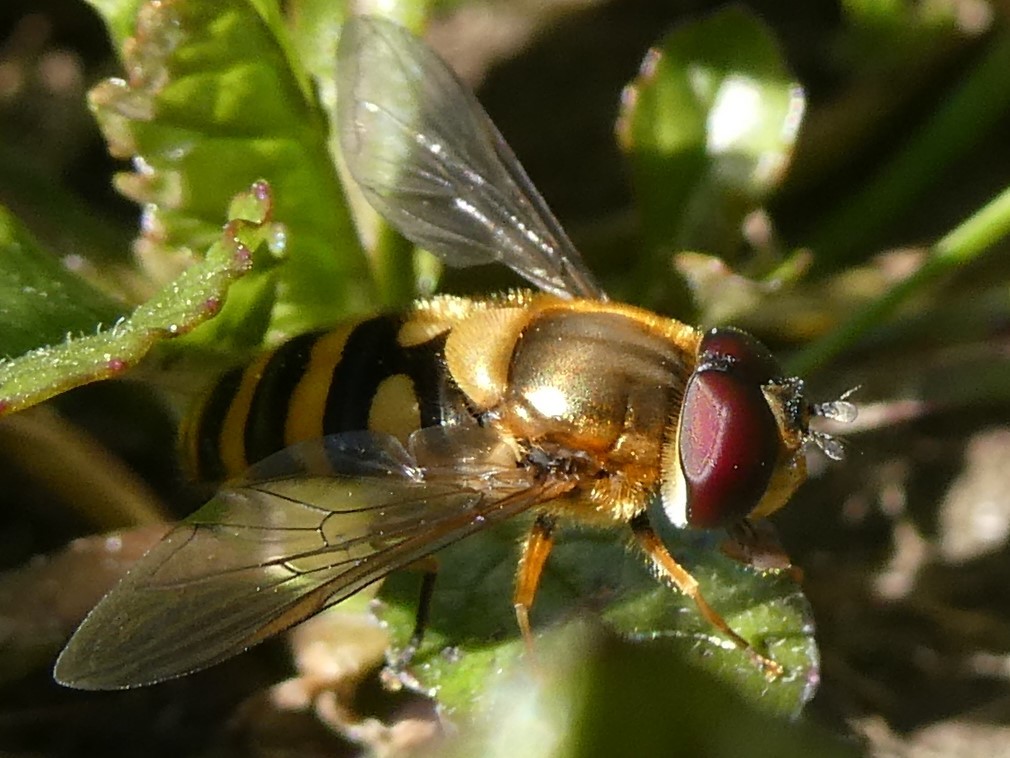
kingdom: Animalia
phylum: Arthropoda
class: Insecta
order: Diptera
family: Syrphidae
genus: Syrphus
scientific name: Syrphus
